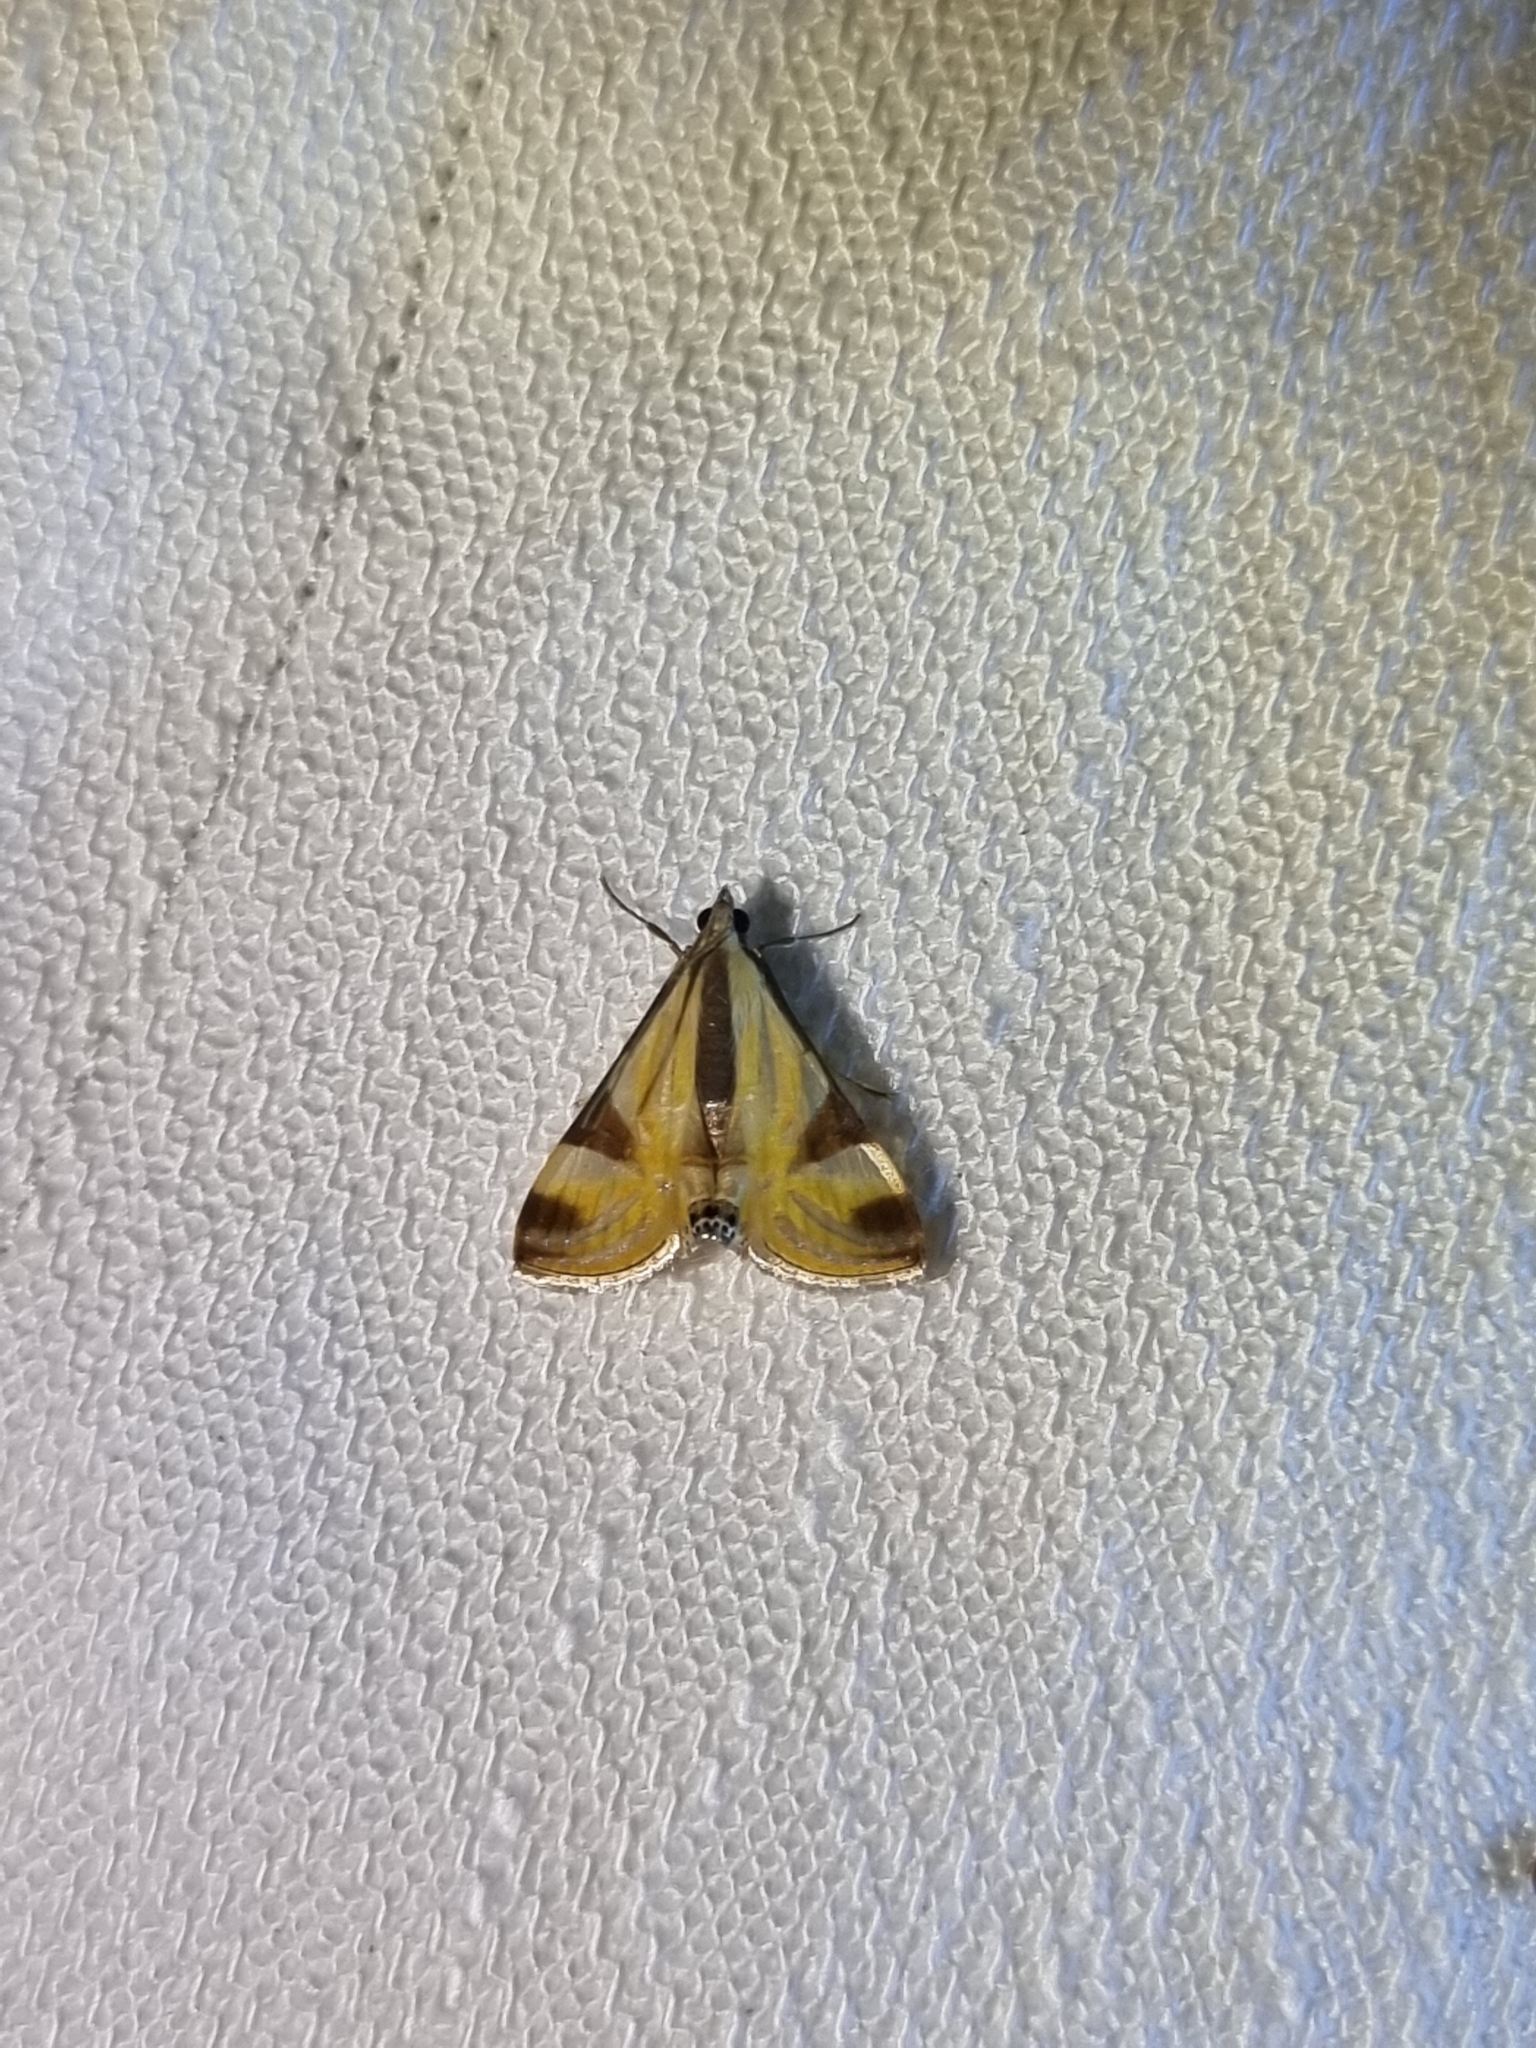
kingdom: Animalia
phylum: Arthropoda
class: Insecta
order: Lepidoptera
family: Crambidae
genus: Talanga
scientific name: Talanga tolumnialis
